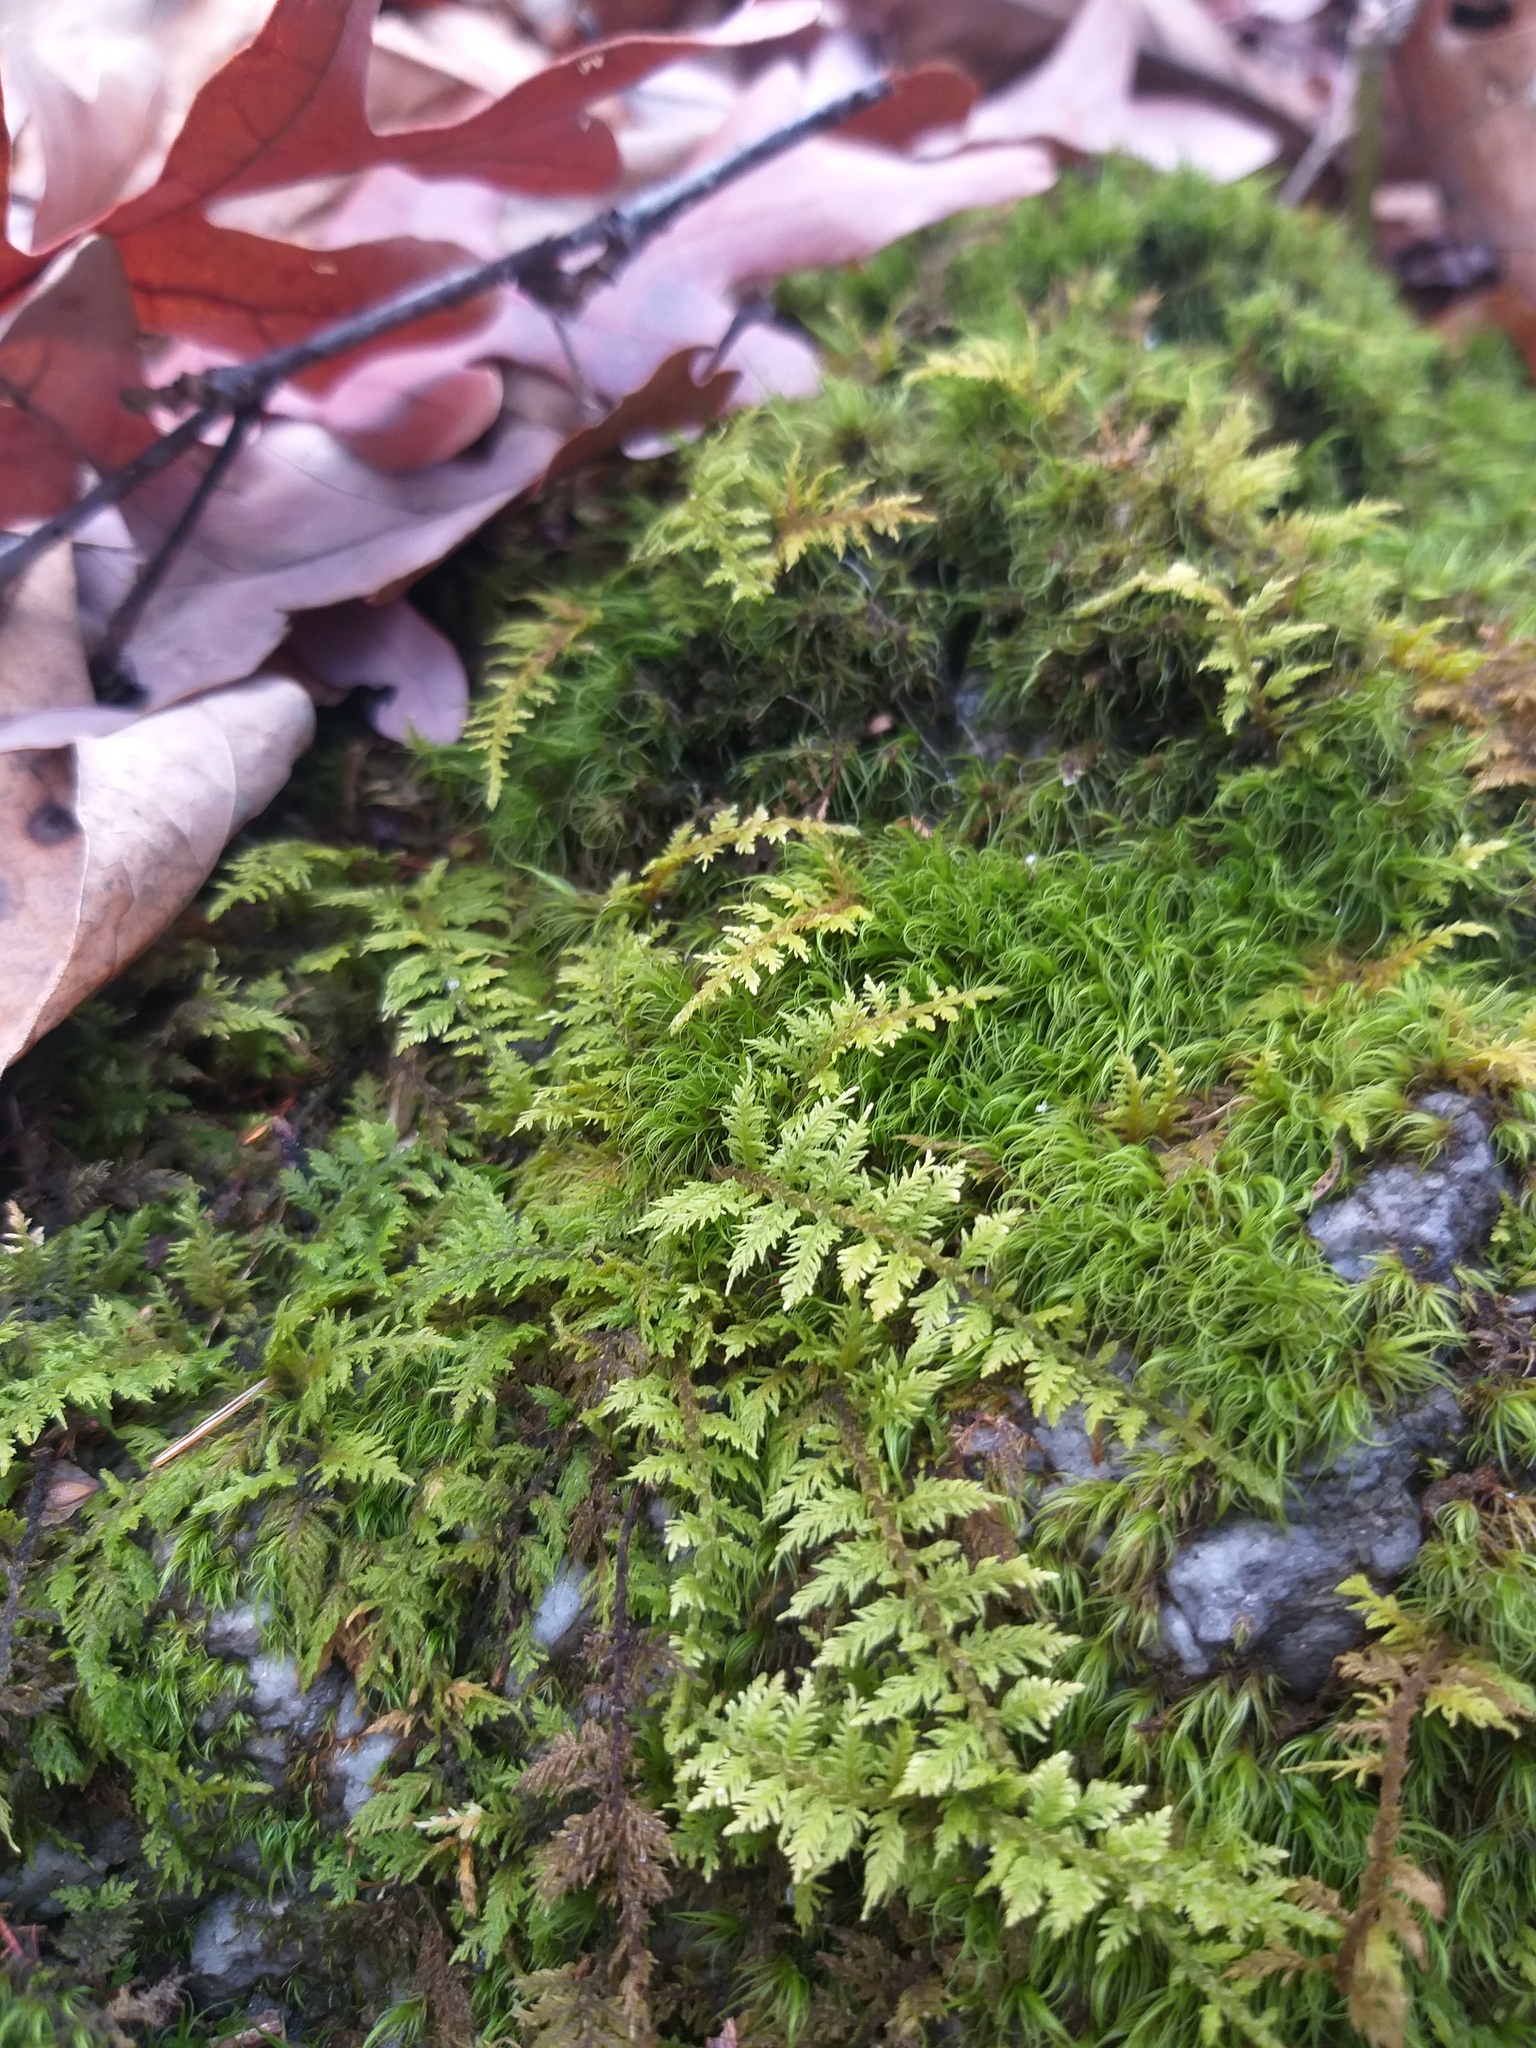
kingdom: Plantae
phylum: Bryophyta
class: Bryopsida
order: Hypnales
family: Thuidiaceae
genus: Thuidium
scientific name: Thuidium delicatulum
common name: Delicate fern moss
